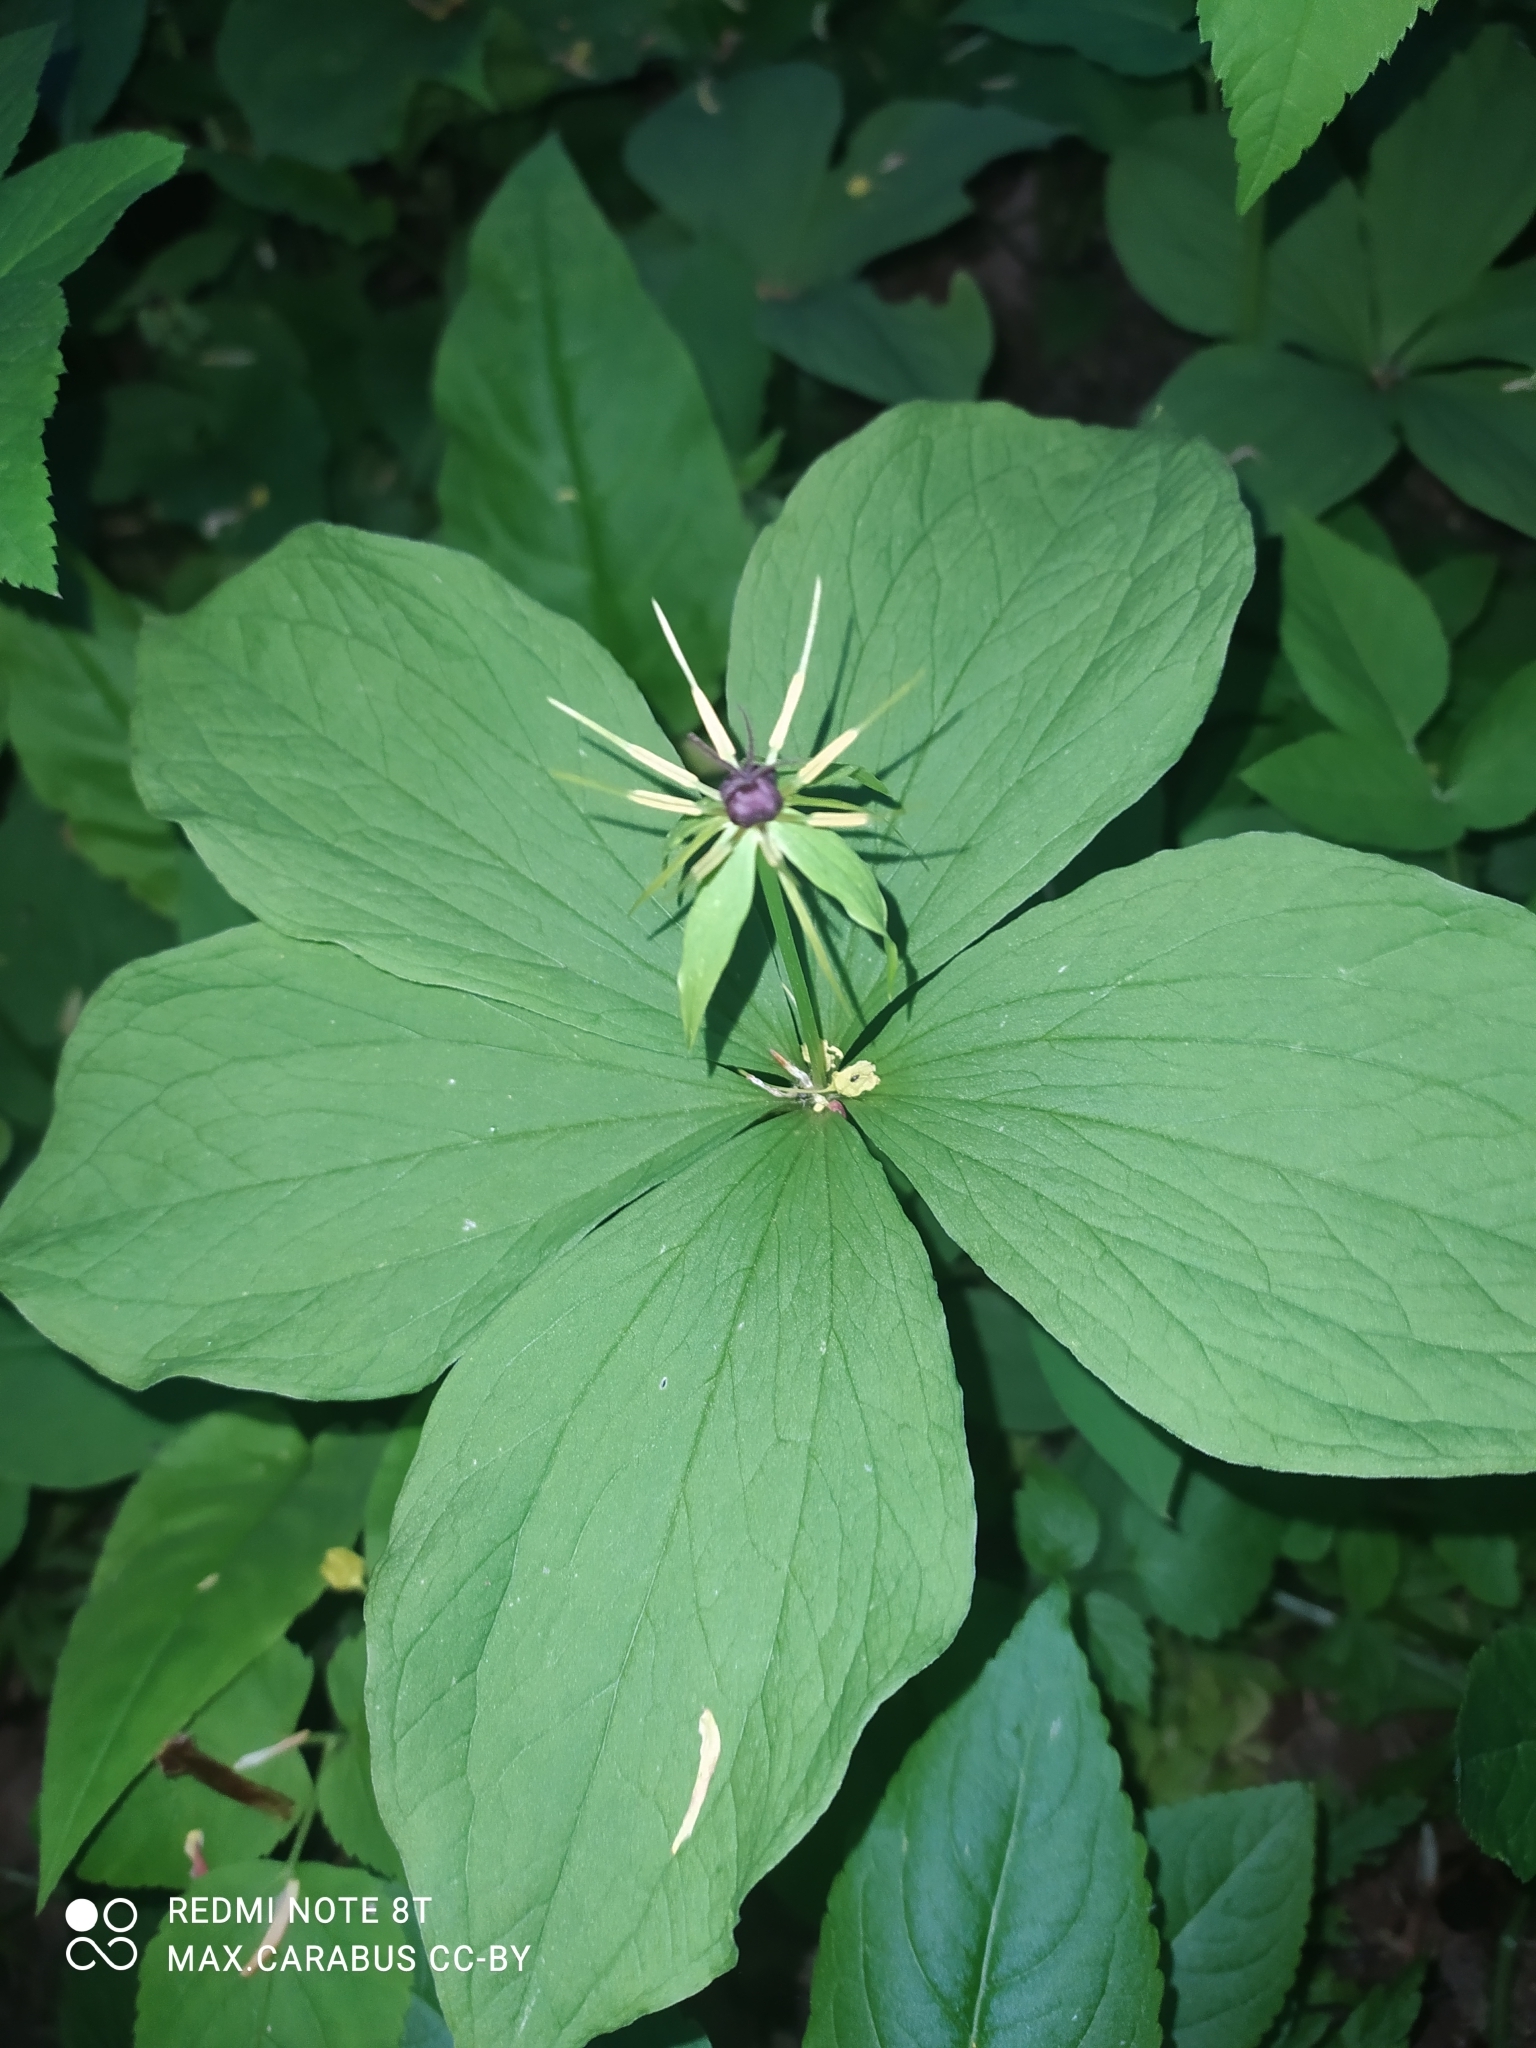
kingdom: Plantae
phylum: Tracheophyta
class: Liliopsida
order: Liliales
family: Melanthiaceae
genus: Paris
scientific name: Paris quadrifolia
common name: Herb-paris
